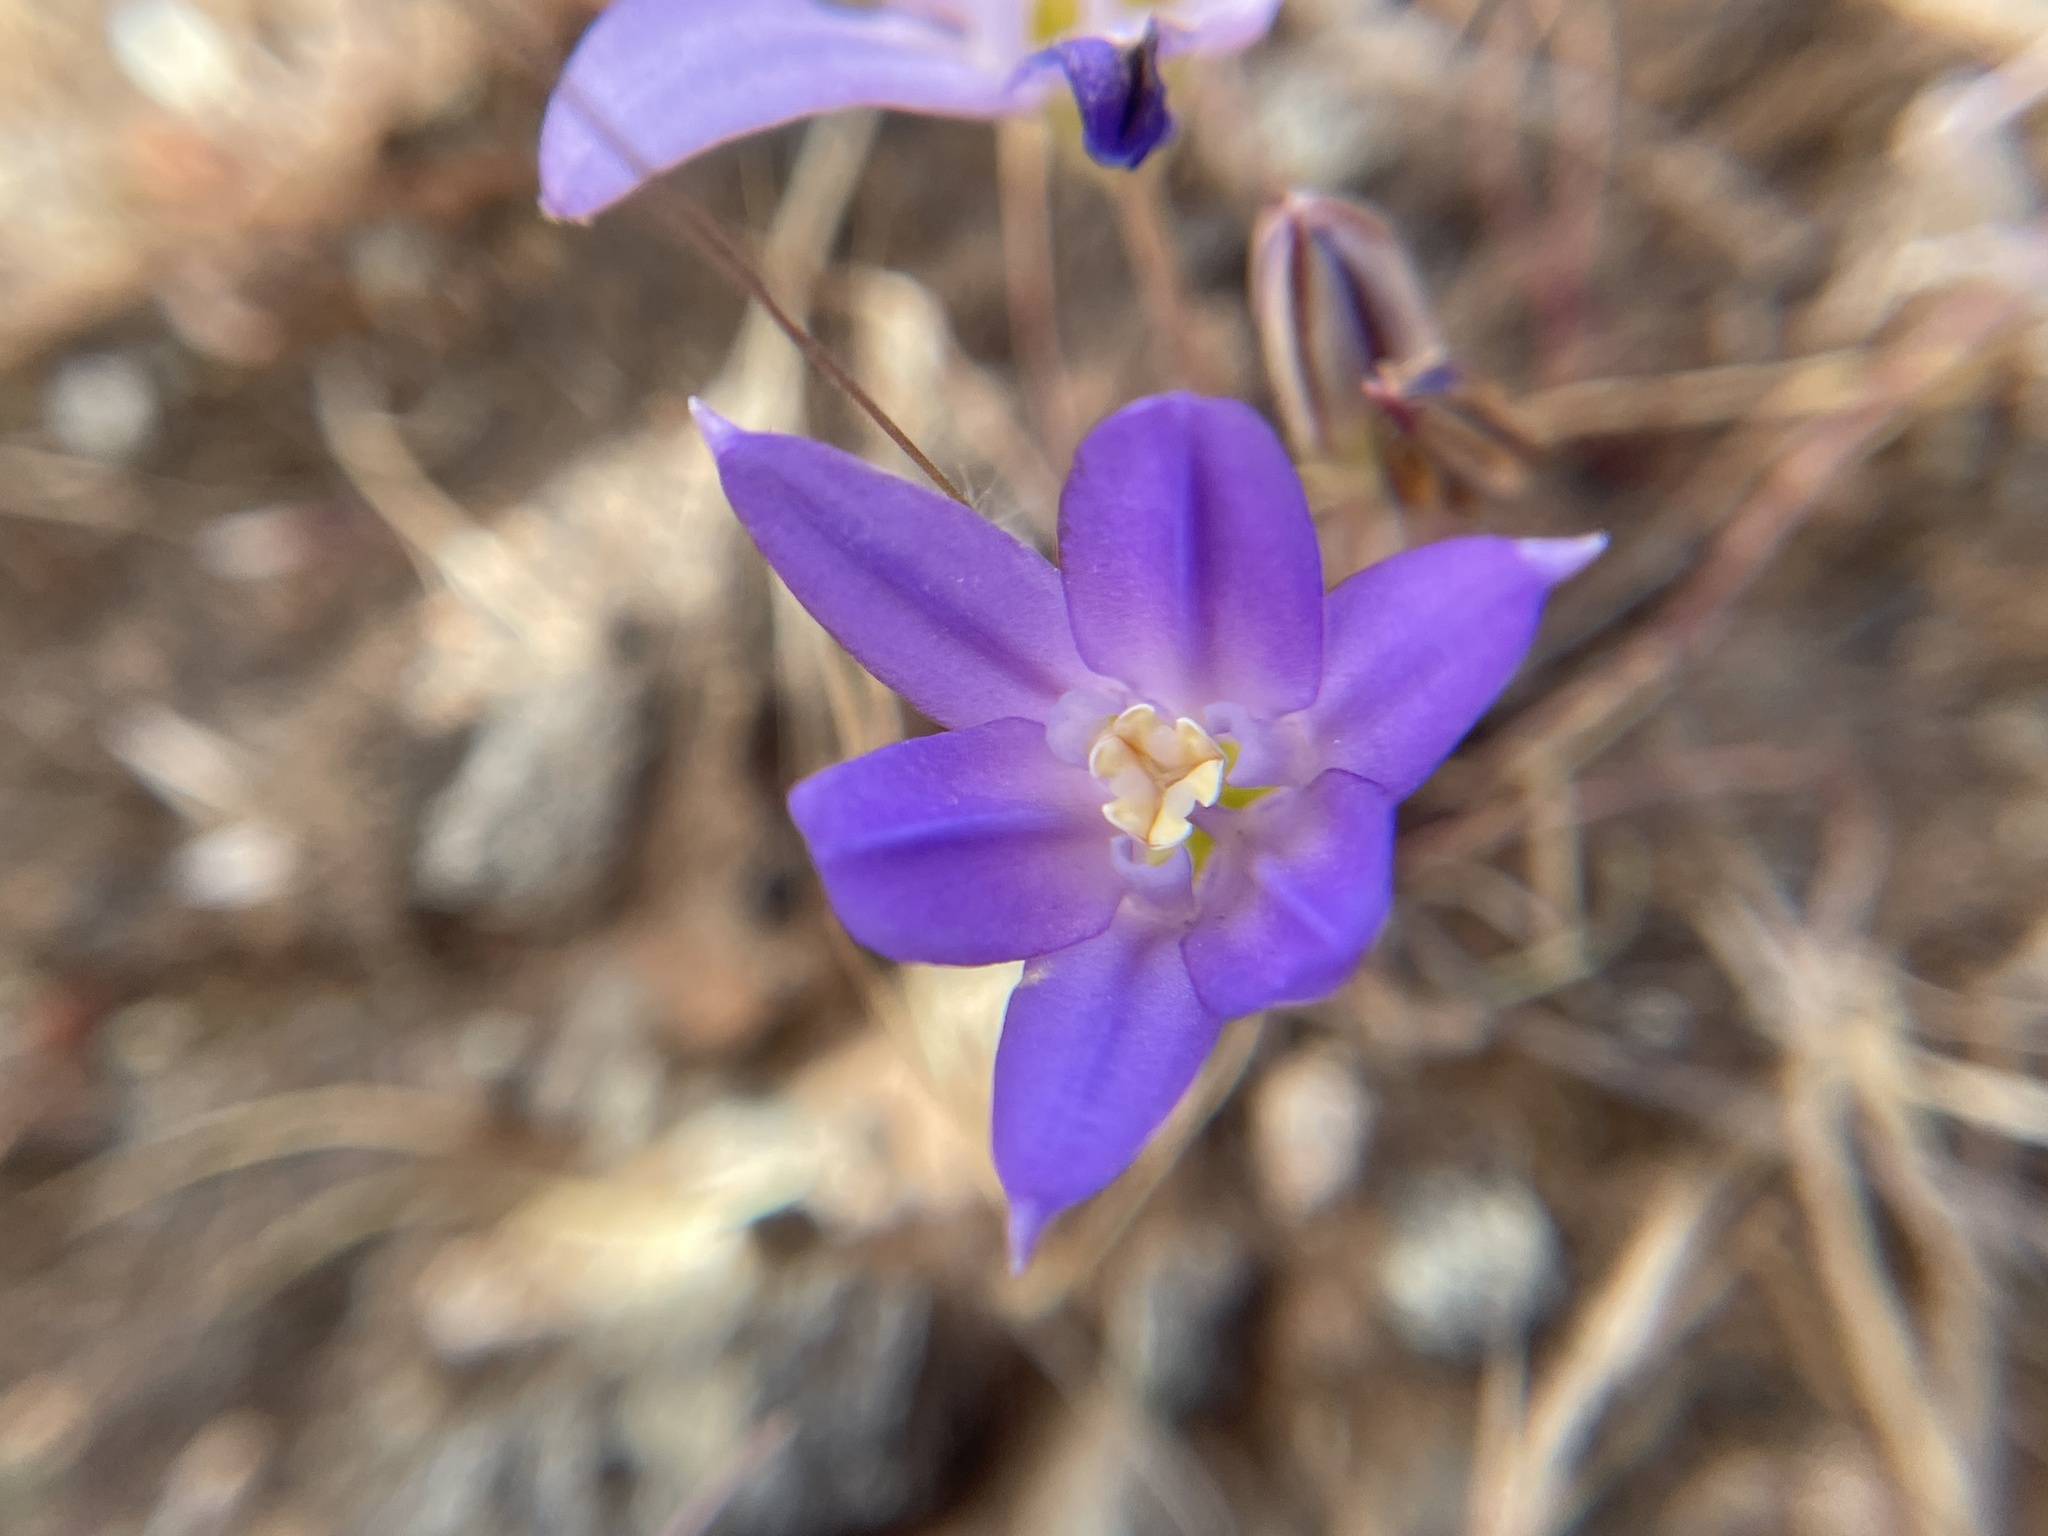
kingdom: Plantae
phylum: Tracheophyta
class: Liliopsida
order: Asparagales
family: Asparagaceae
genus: Brodiaea
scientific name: Brodiaea terrestris
